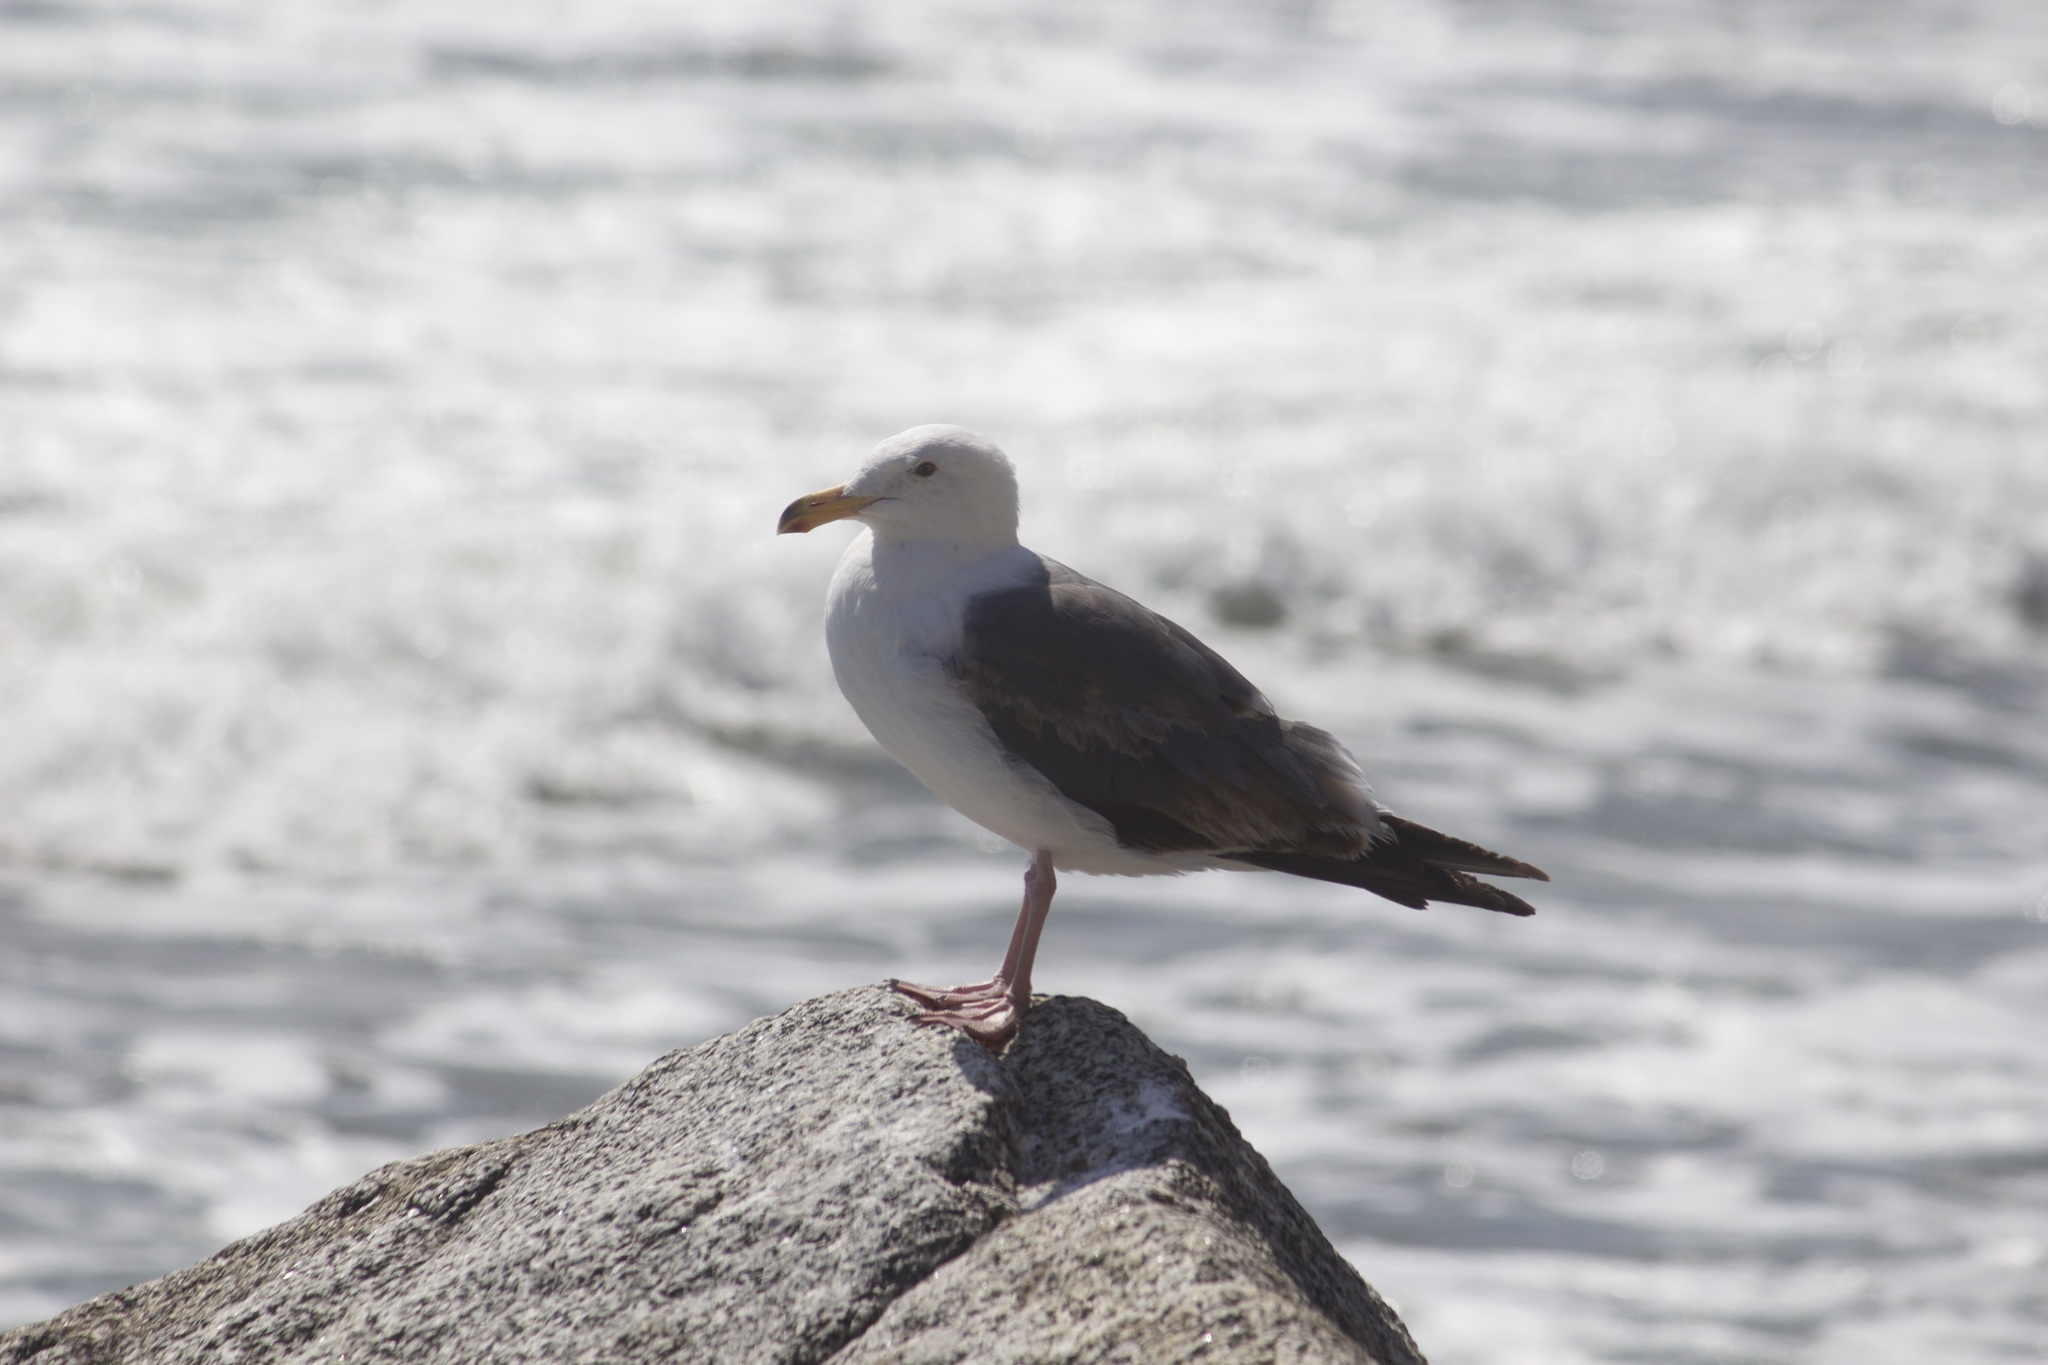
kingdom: Animalia
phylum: Chordata
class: Aves
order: Charadriiformes
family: Laridae
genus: Larus
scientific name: Larus occidentalis
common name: Western gull
